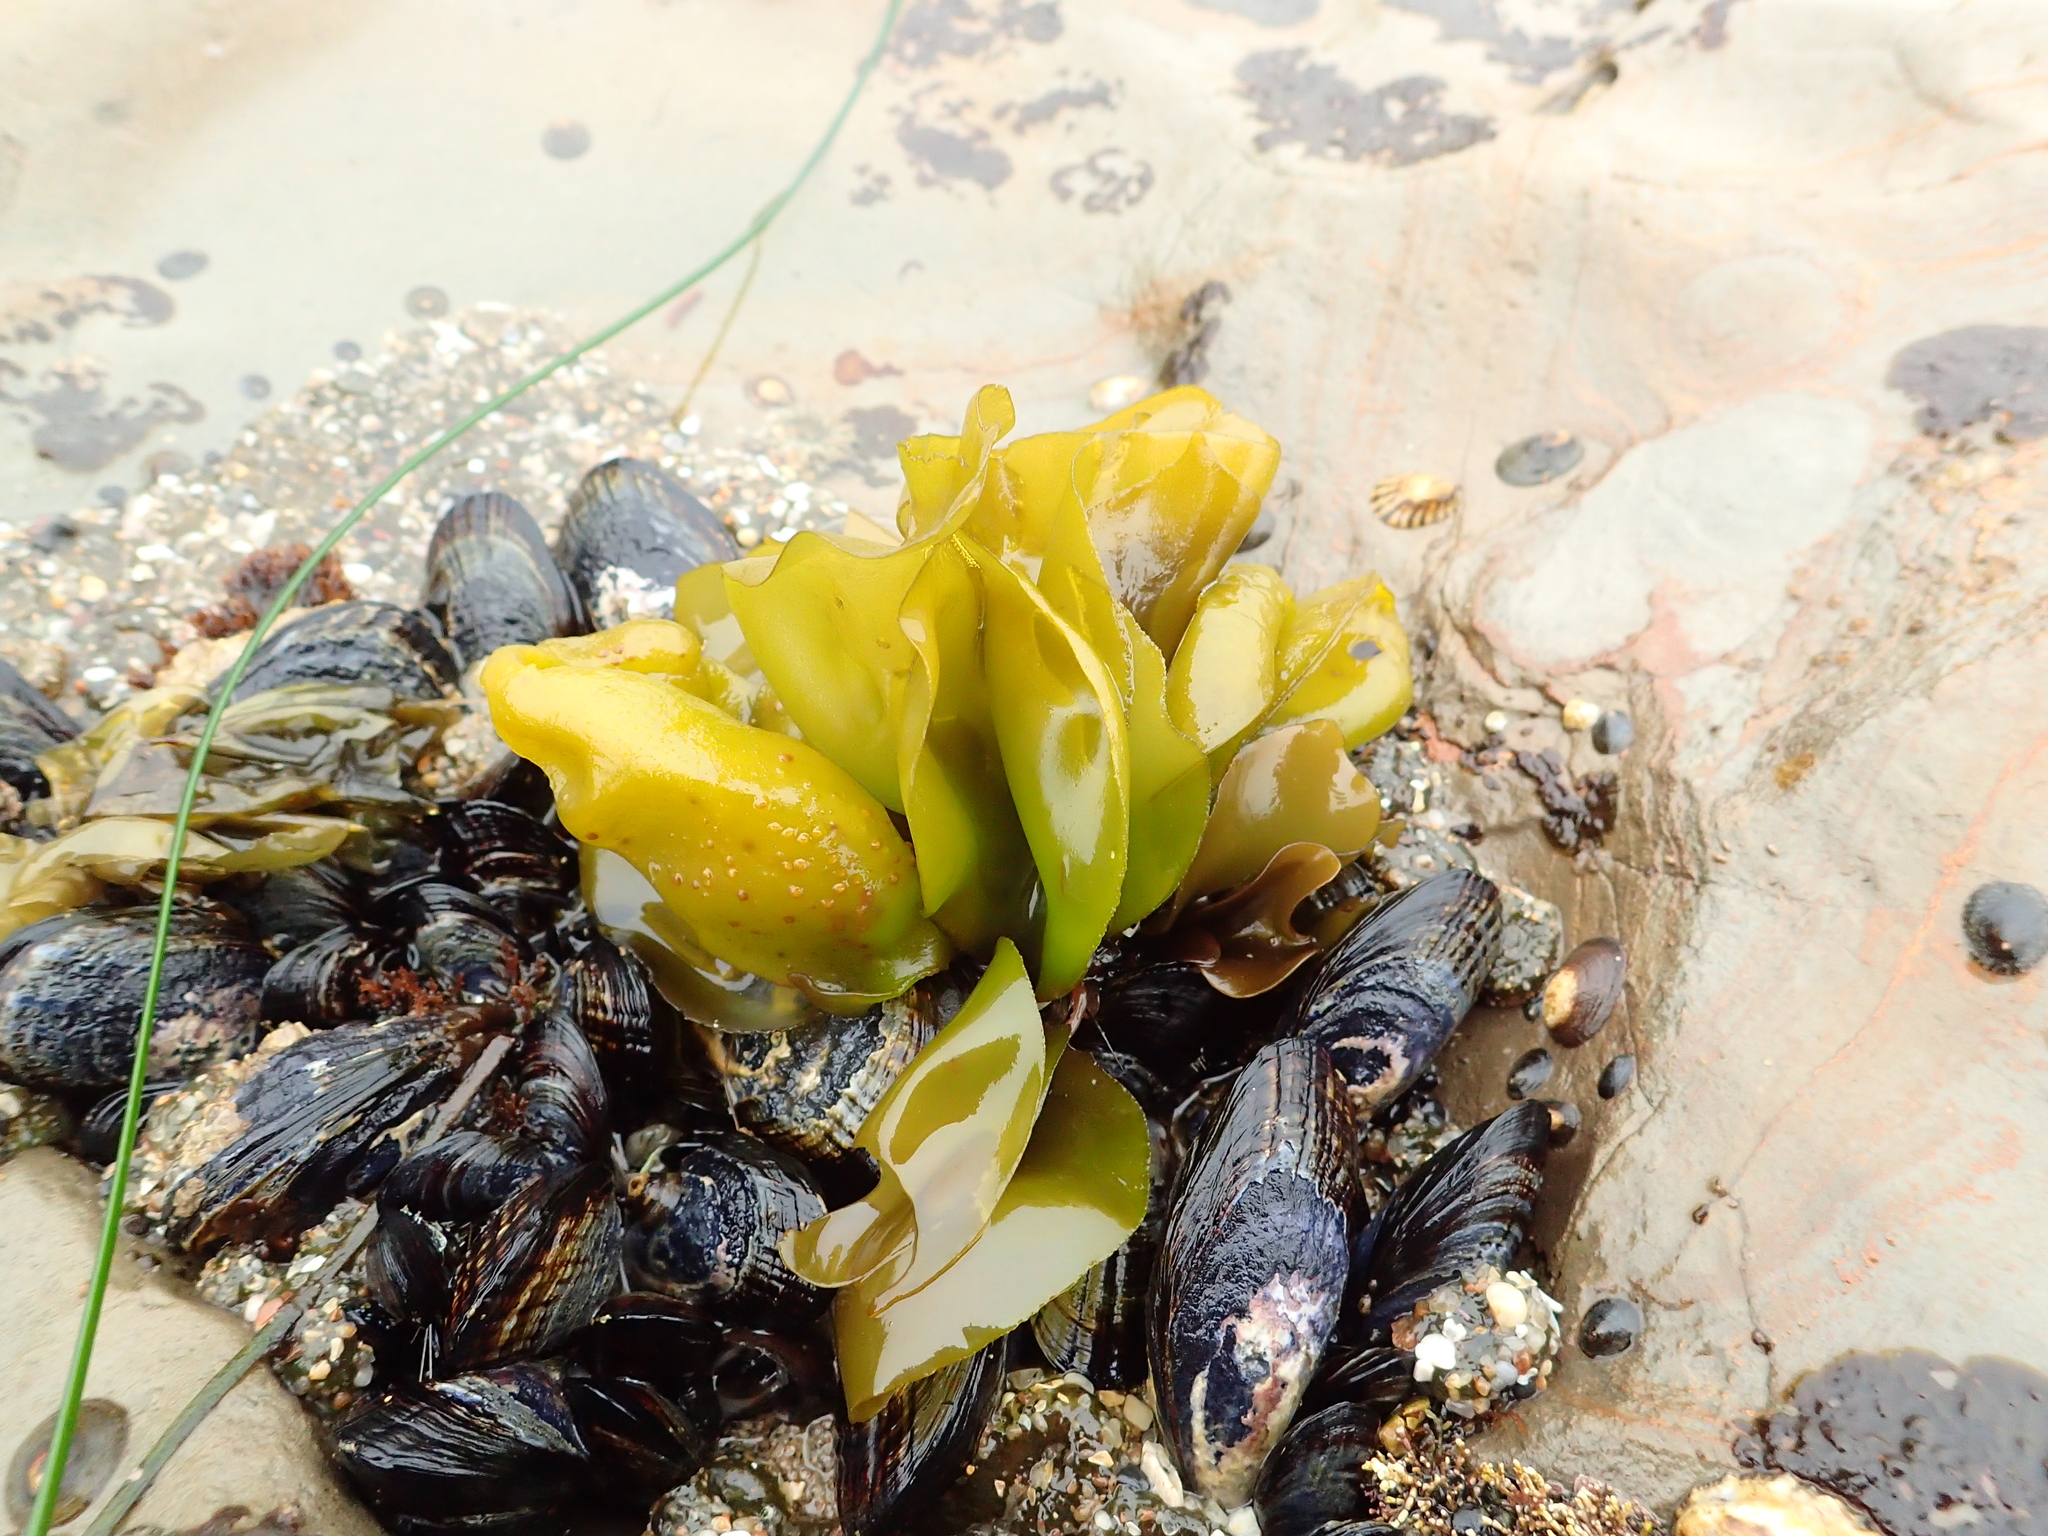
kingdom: Plantae
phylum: Rhodophyta
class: Florideophyceae
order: Gigartinales
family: Gigartinaceae
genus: Mazzaella
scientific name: Mazzaella flaccida
